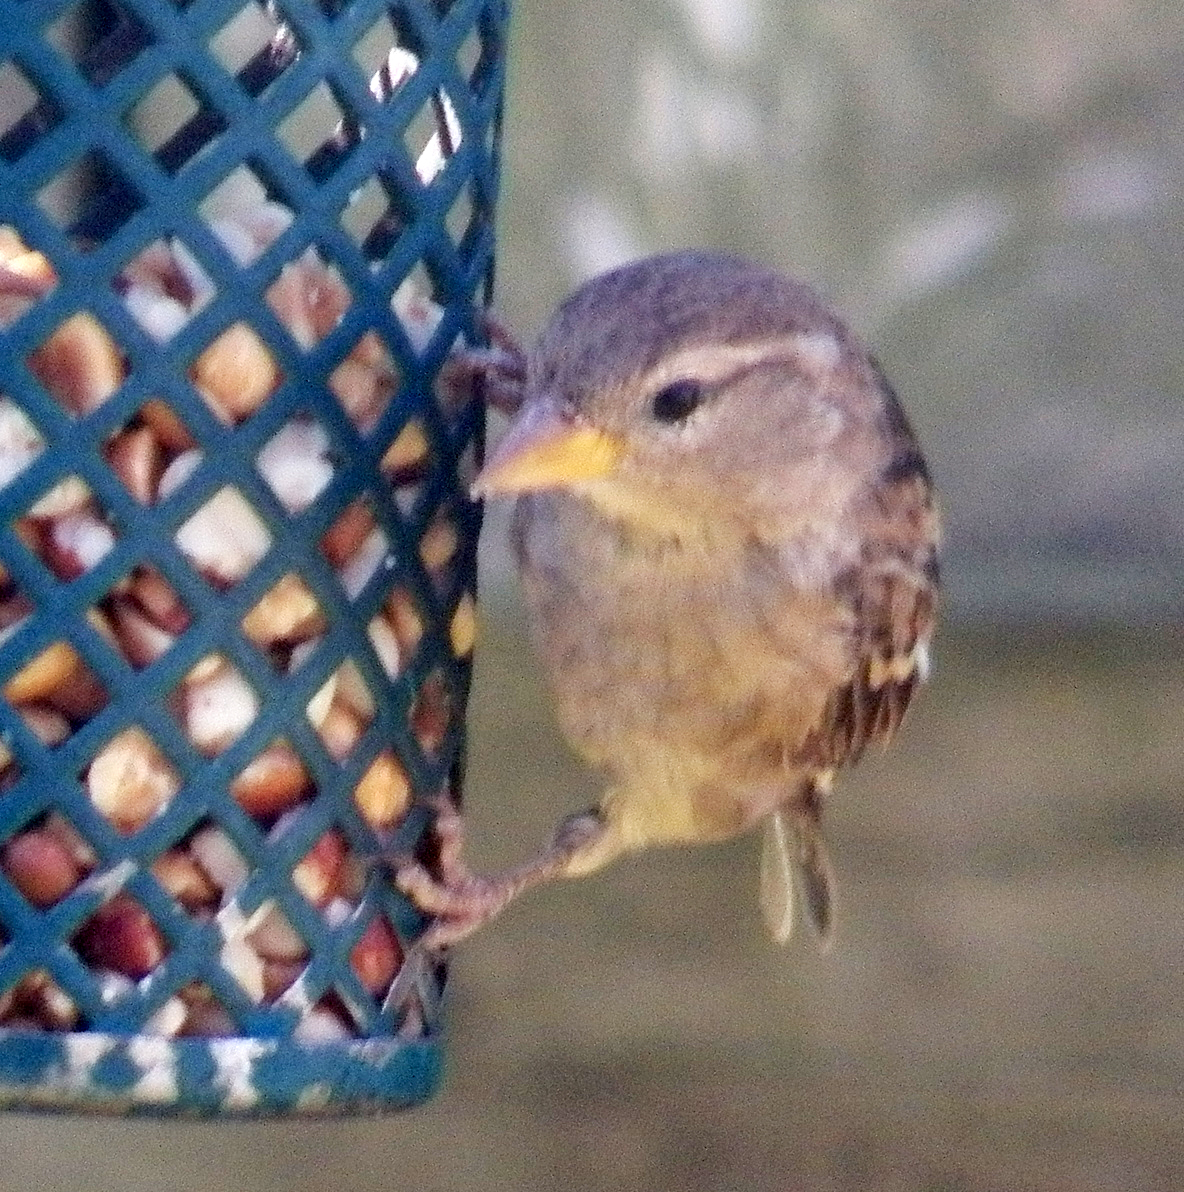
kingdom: Animalia
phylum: Chordata
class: Aves
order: Passeriformes
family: Passeridae
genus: Passer
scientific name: Passer domesticus
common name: House sparrow
